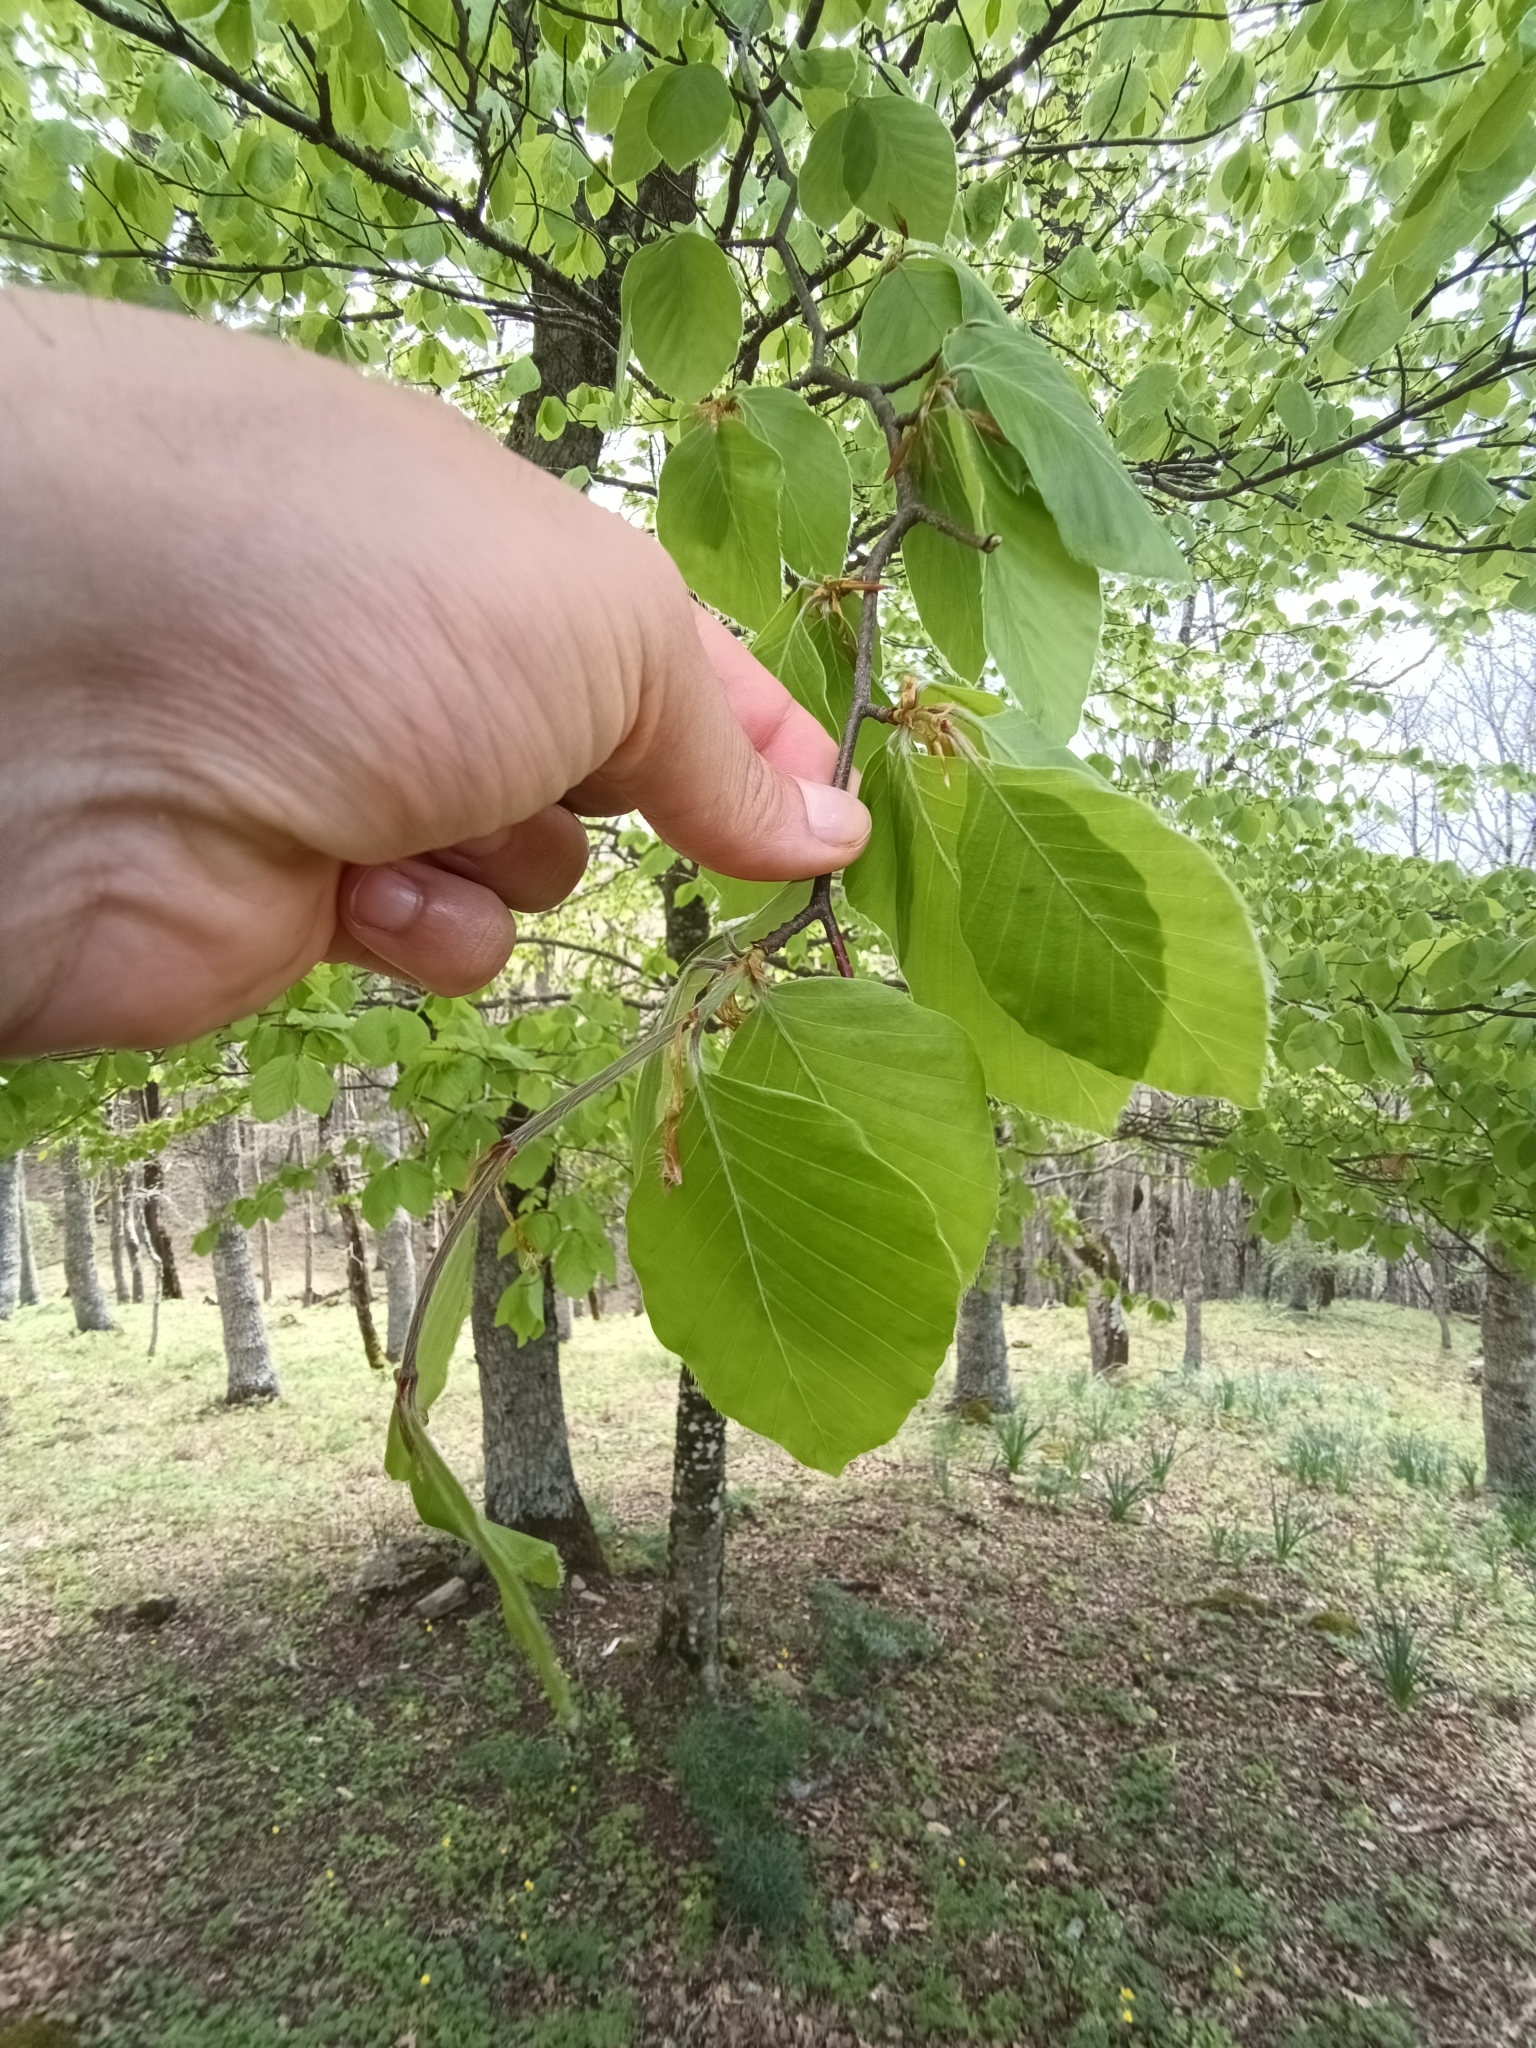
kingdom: Plantae
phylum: Tracheophyta
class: Magnoliopsida
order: Fagales
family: Fagaceae
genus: Fagus
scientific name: Fagus sylvatica
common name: Beech
